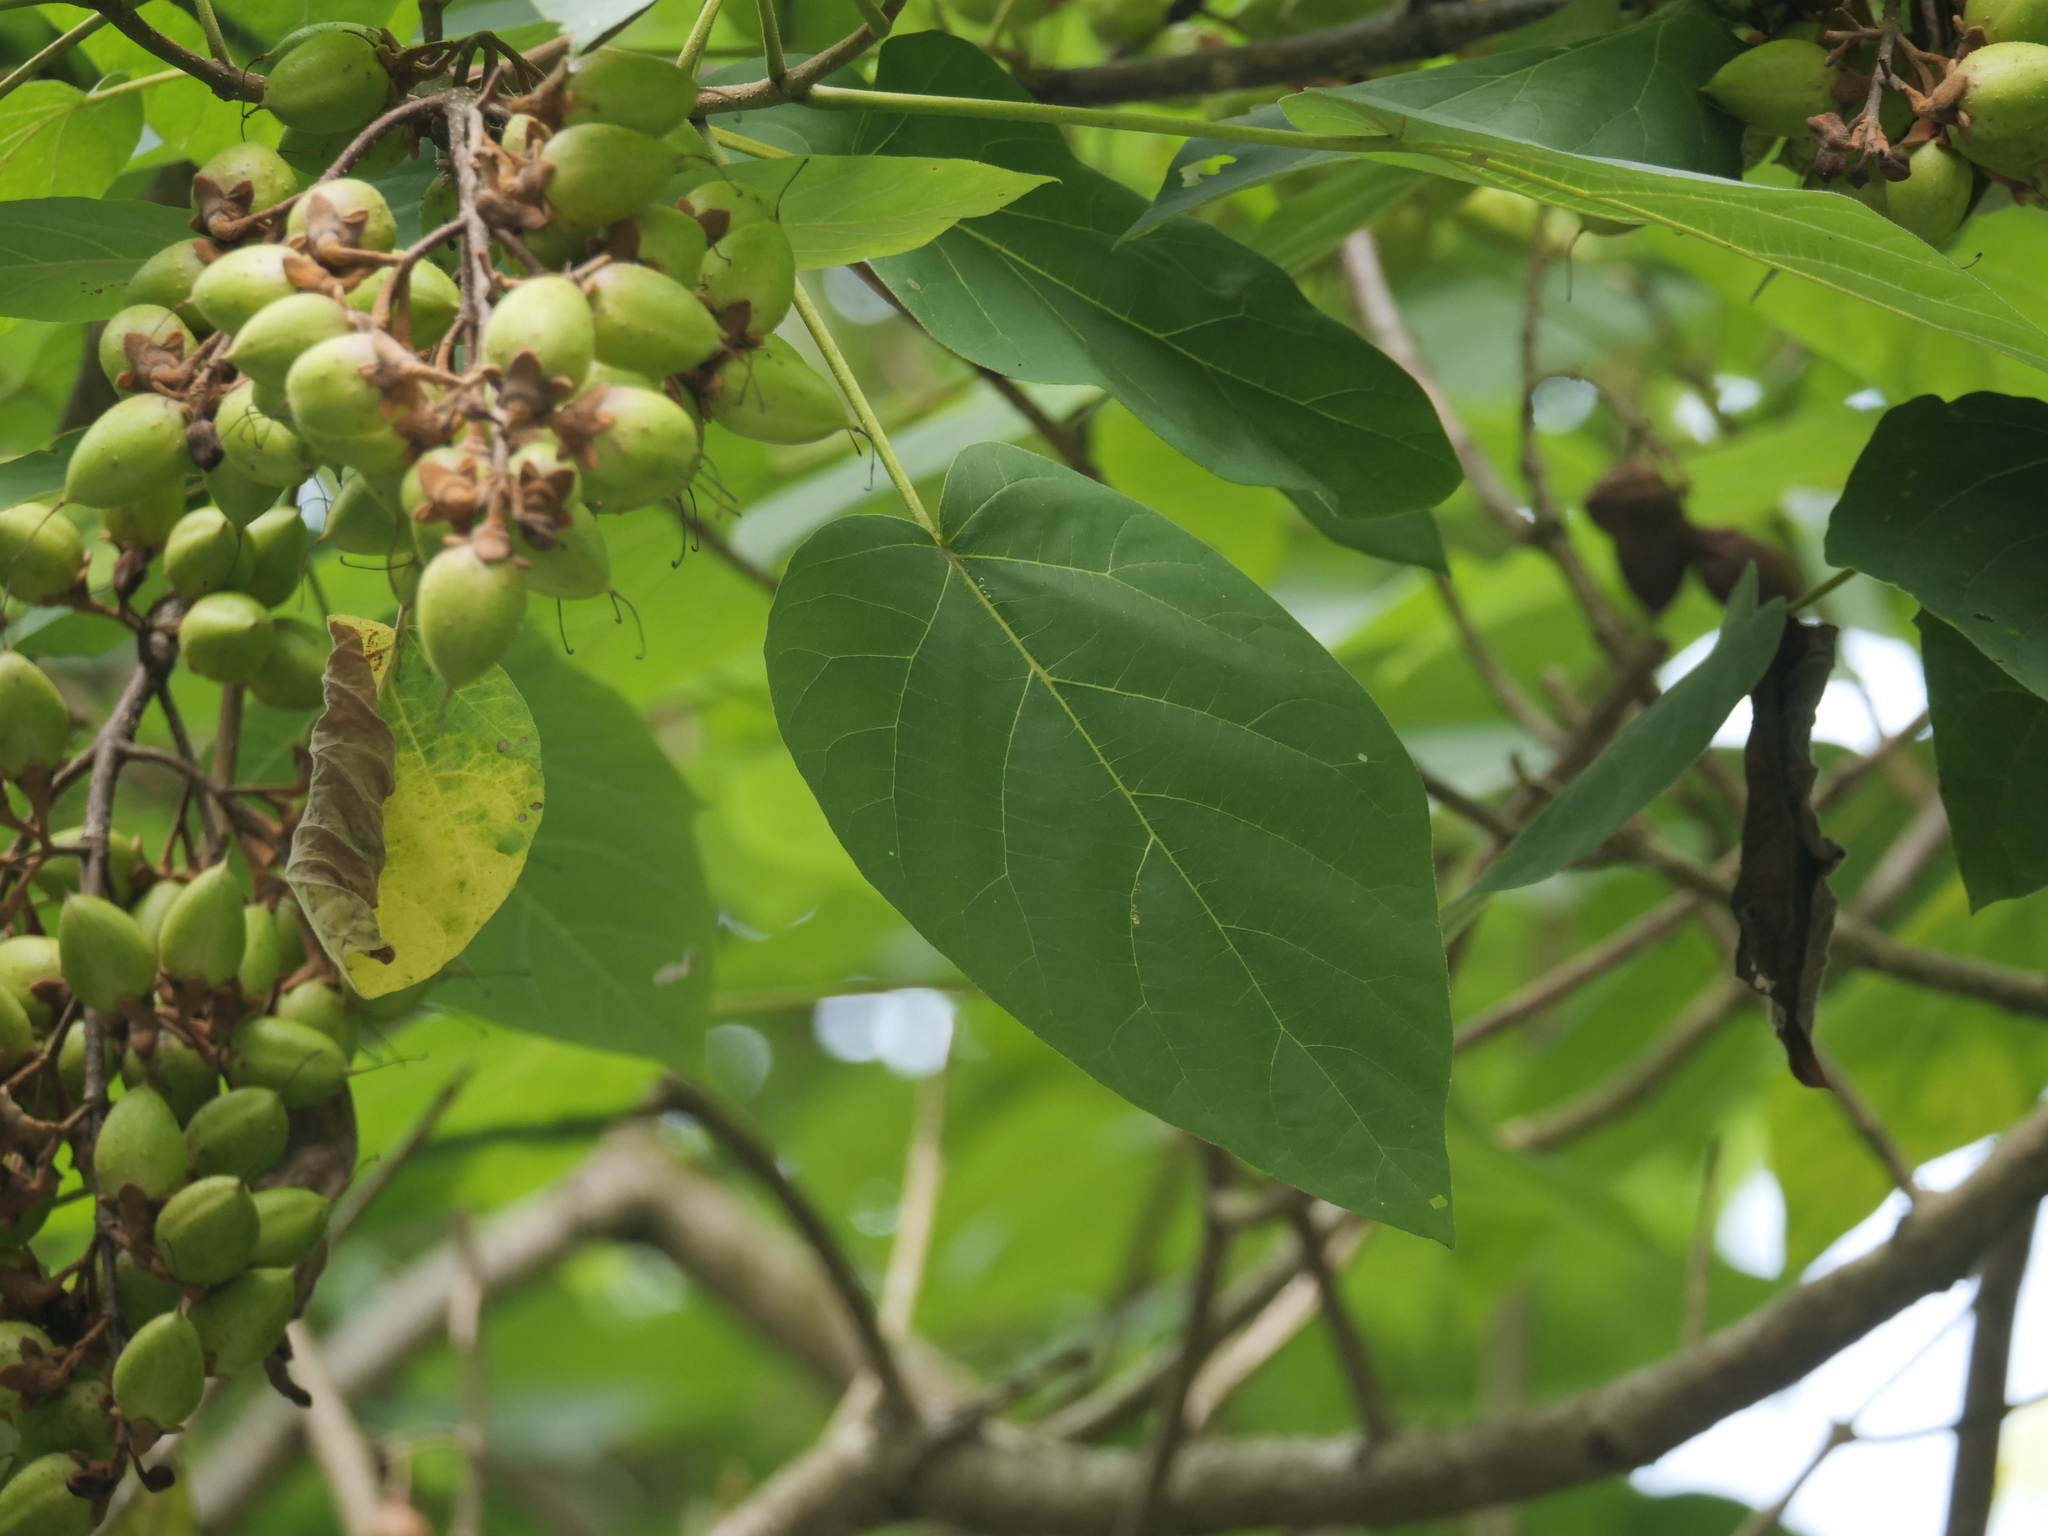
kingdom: Plantae
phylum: Tracheophyta
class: Magnoliopsida
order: Lamiales
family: Paulowniaceae
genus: Paulownia
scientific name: Paulownia tomentosa
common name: Foxglove-tree
